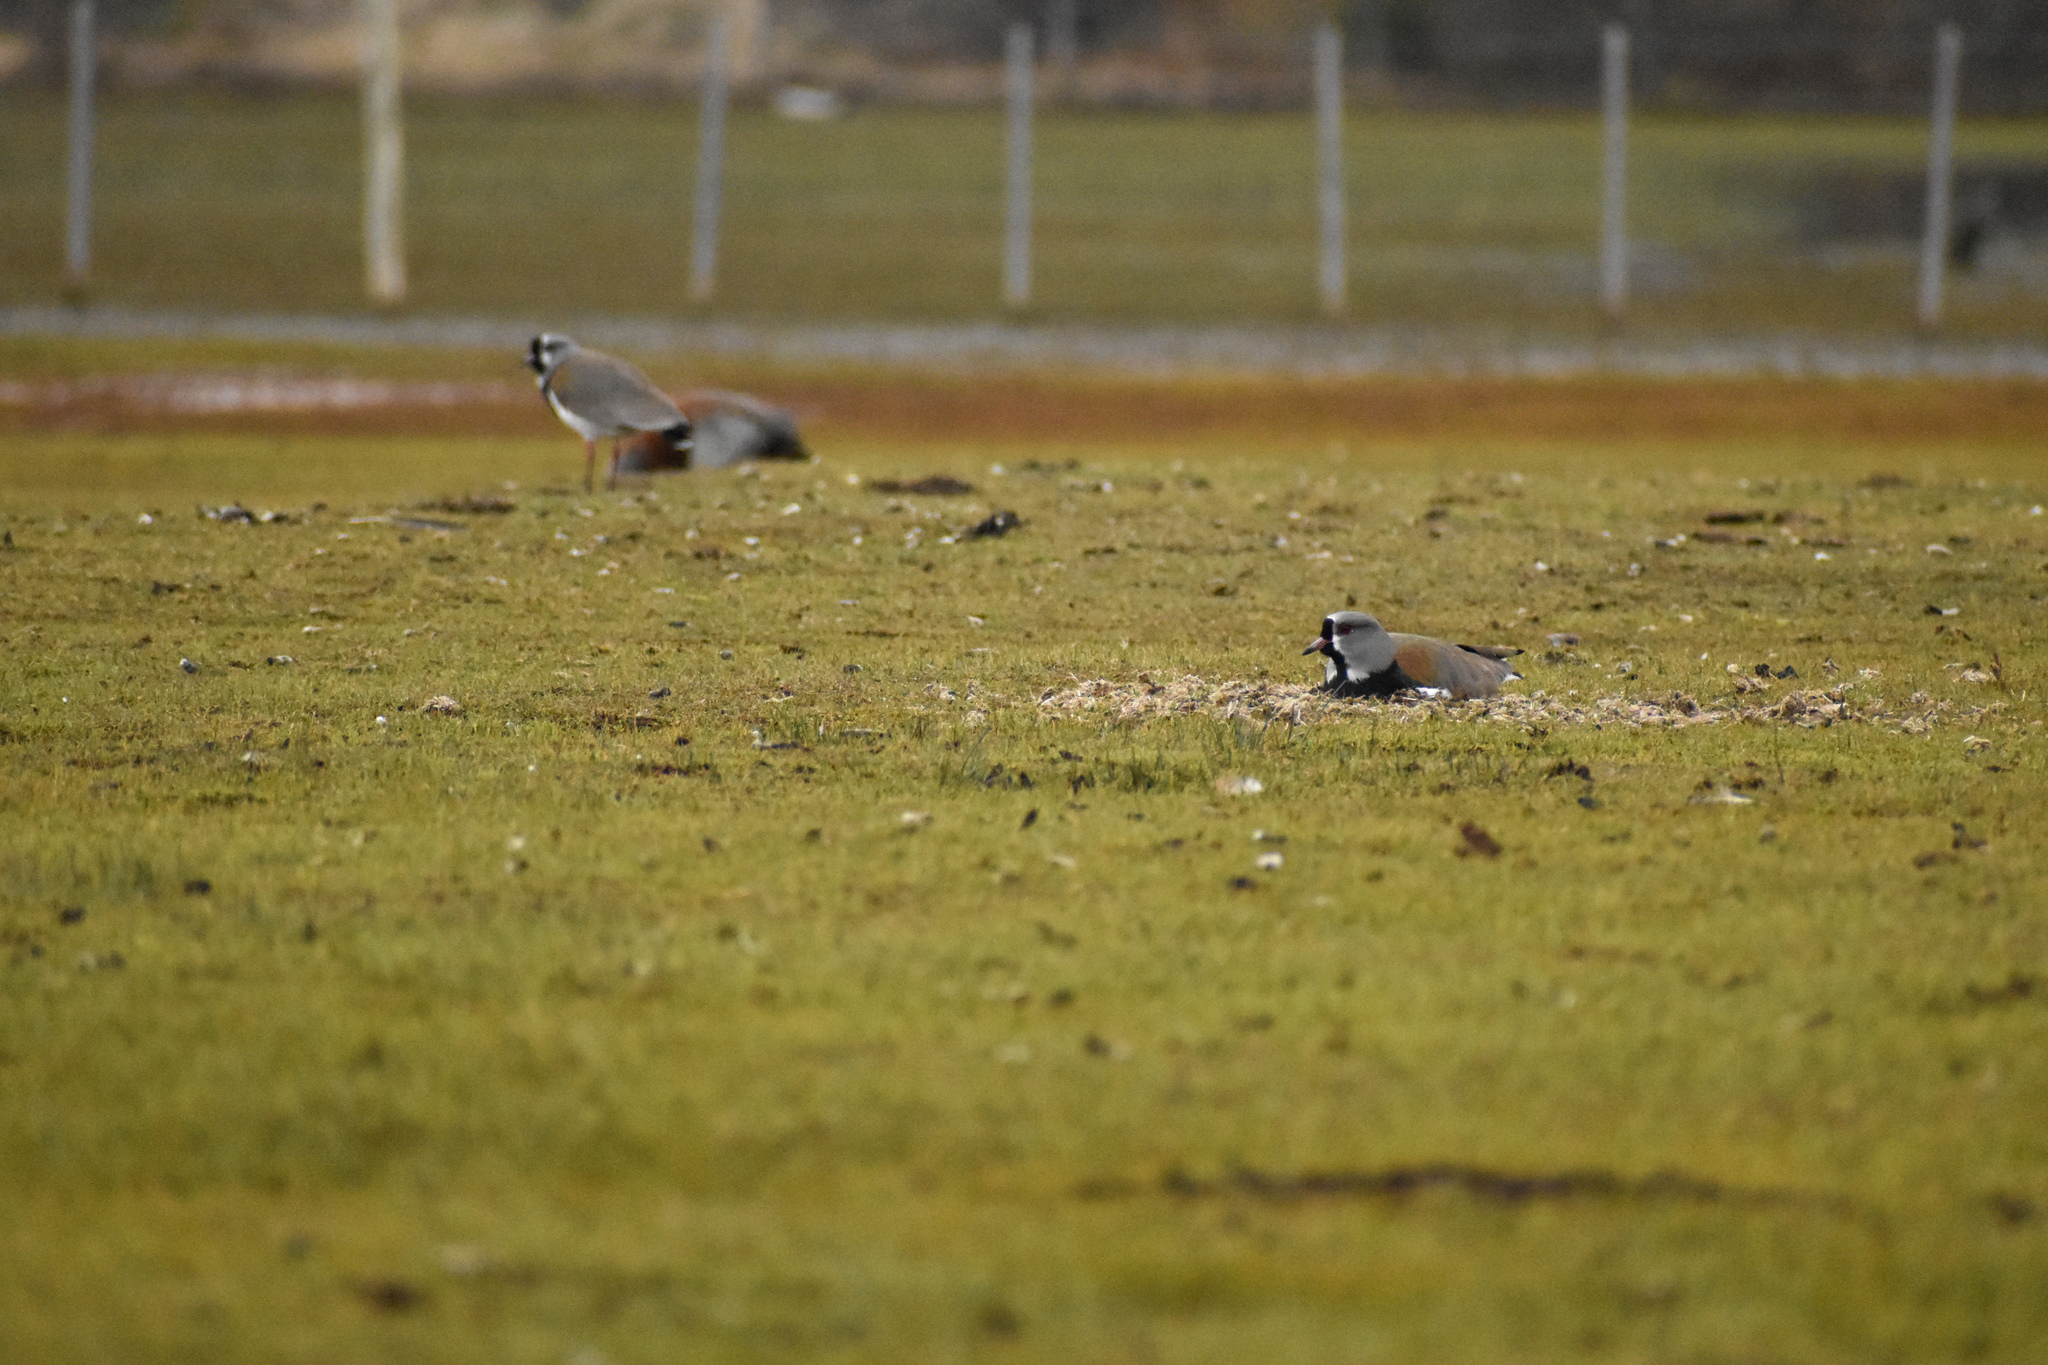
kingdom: Animalia
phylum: Chordata
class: Aves
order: Charadriiformes
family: Charadriidae
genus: Vanellus
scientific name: Vanellus chilensis
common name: Southern lapwing
